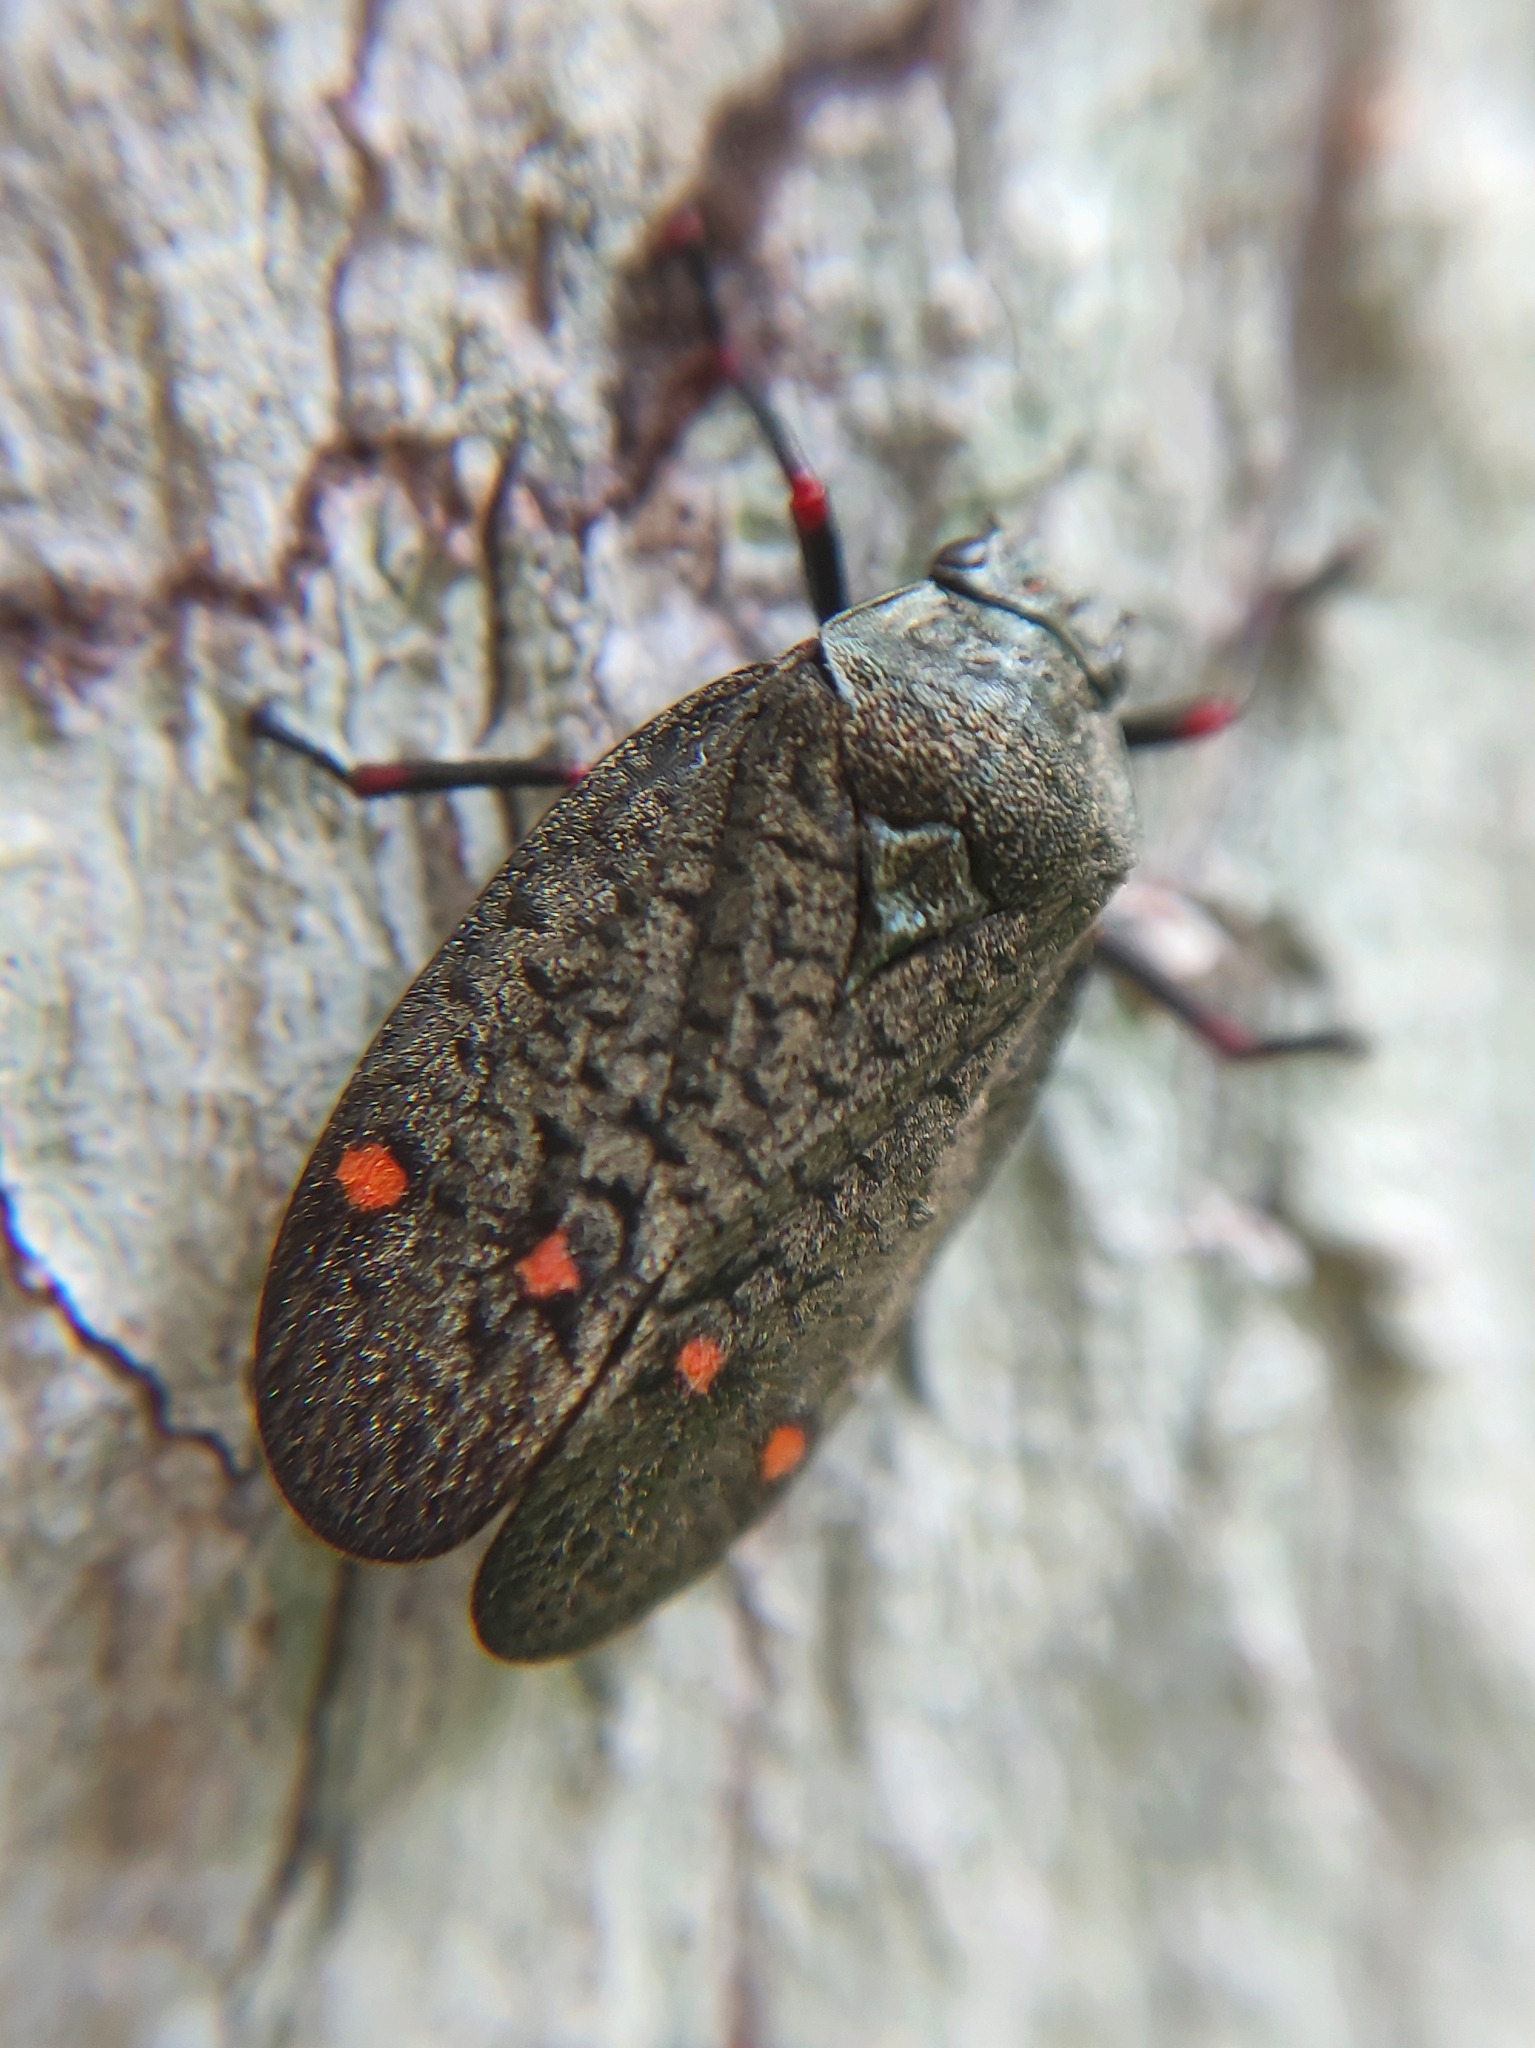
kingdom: Animalia
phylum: Arthropoda
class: Insecta
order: Hemiptera
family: Cercopidae
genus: Deois
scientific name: Deois spinulata
